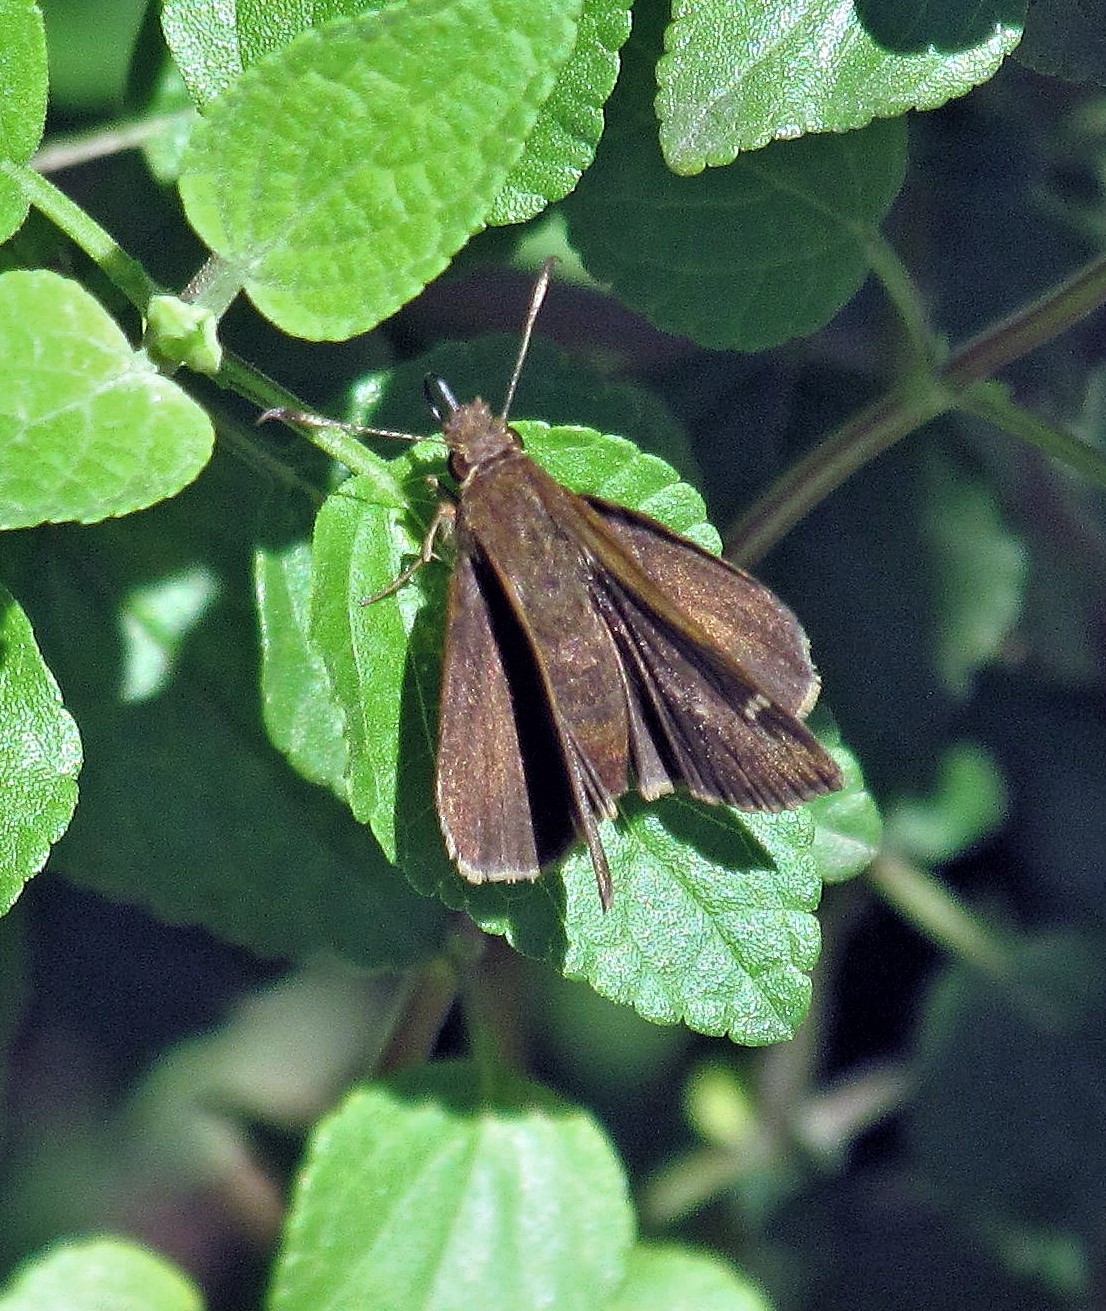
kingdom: Animalia
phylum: Arthropoda
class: Insecta
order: Lepidoptera
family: Hesperiidae
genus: Cymaenes
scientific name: Cymaenes
